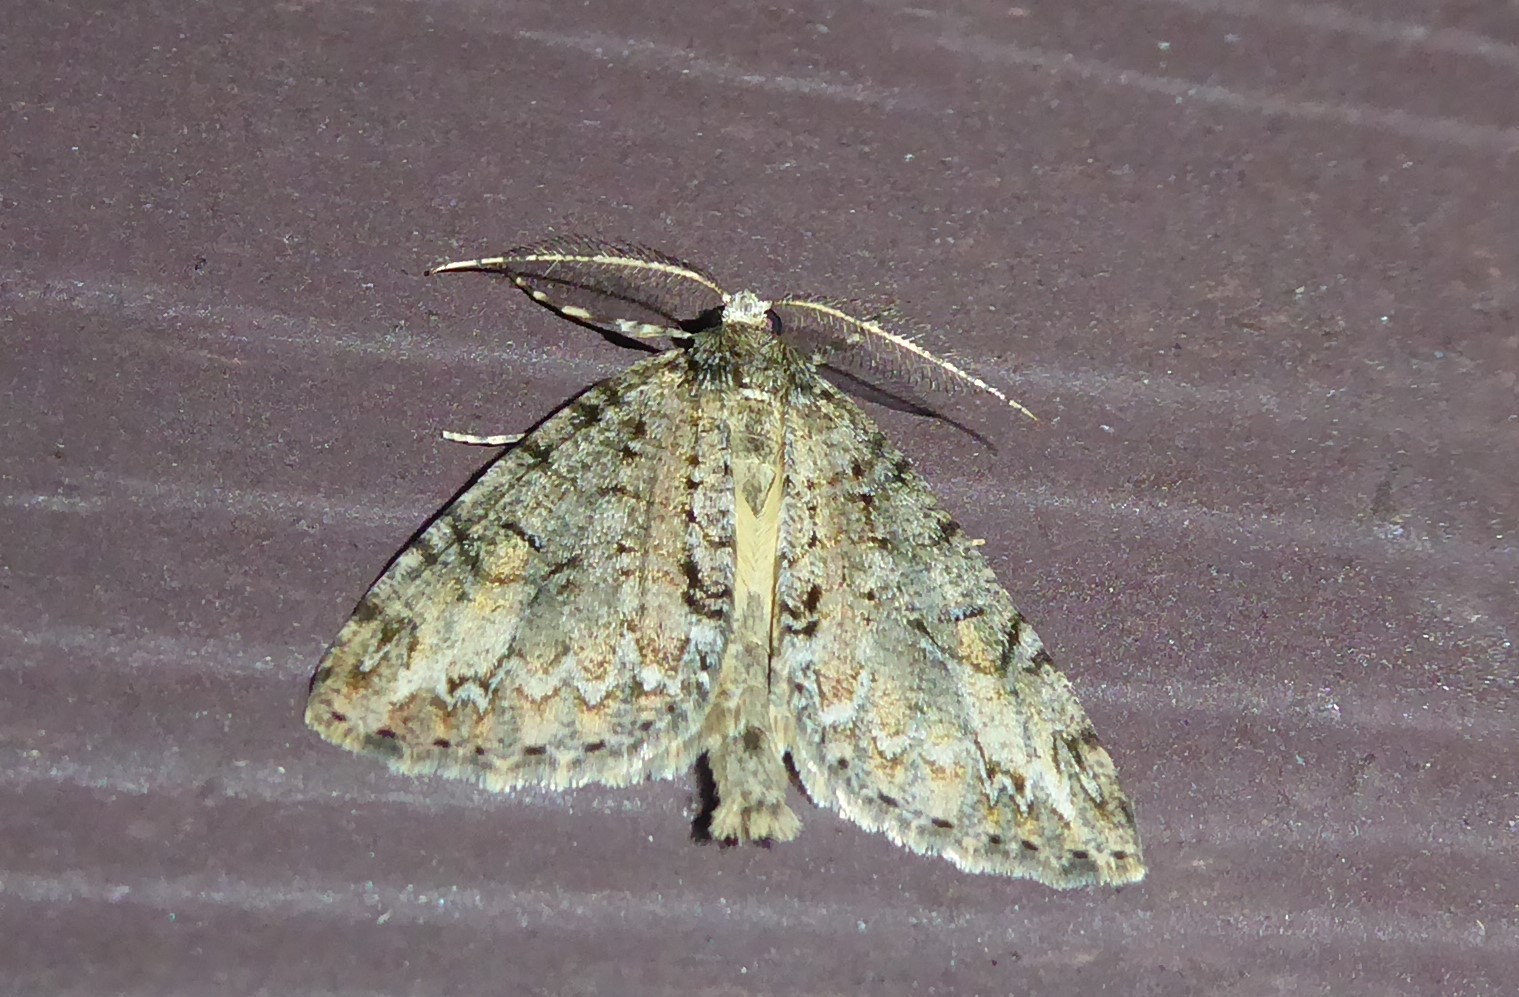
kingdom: Animalia
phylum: Arthropoda
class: Insecta
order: Lepidoptera
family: Geometridae
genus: Pseudocoremia
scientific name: Pseudocoremia suavis
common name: Common forest looper
